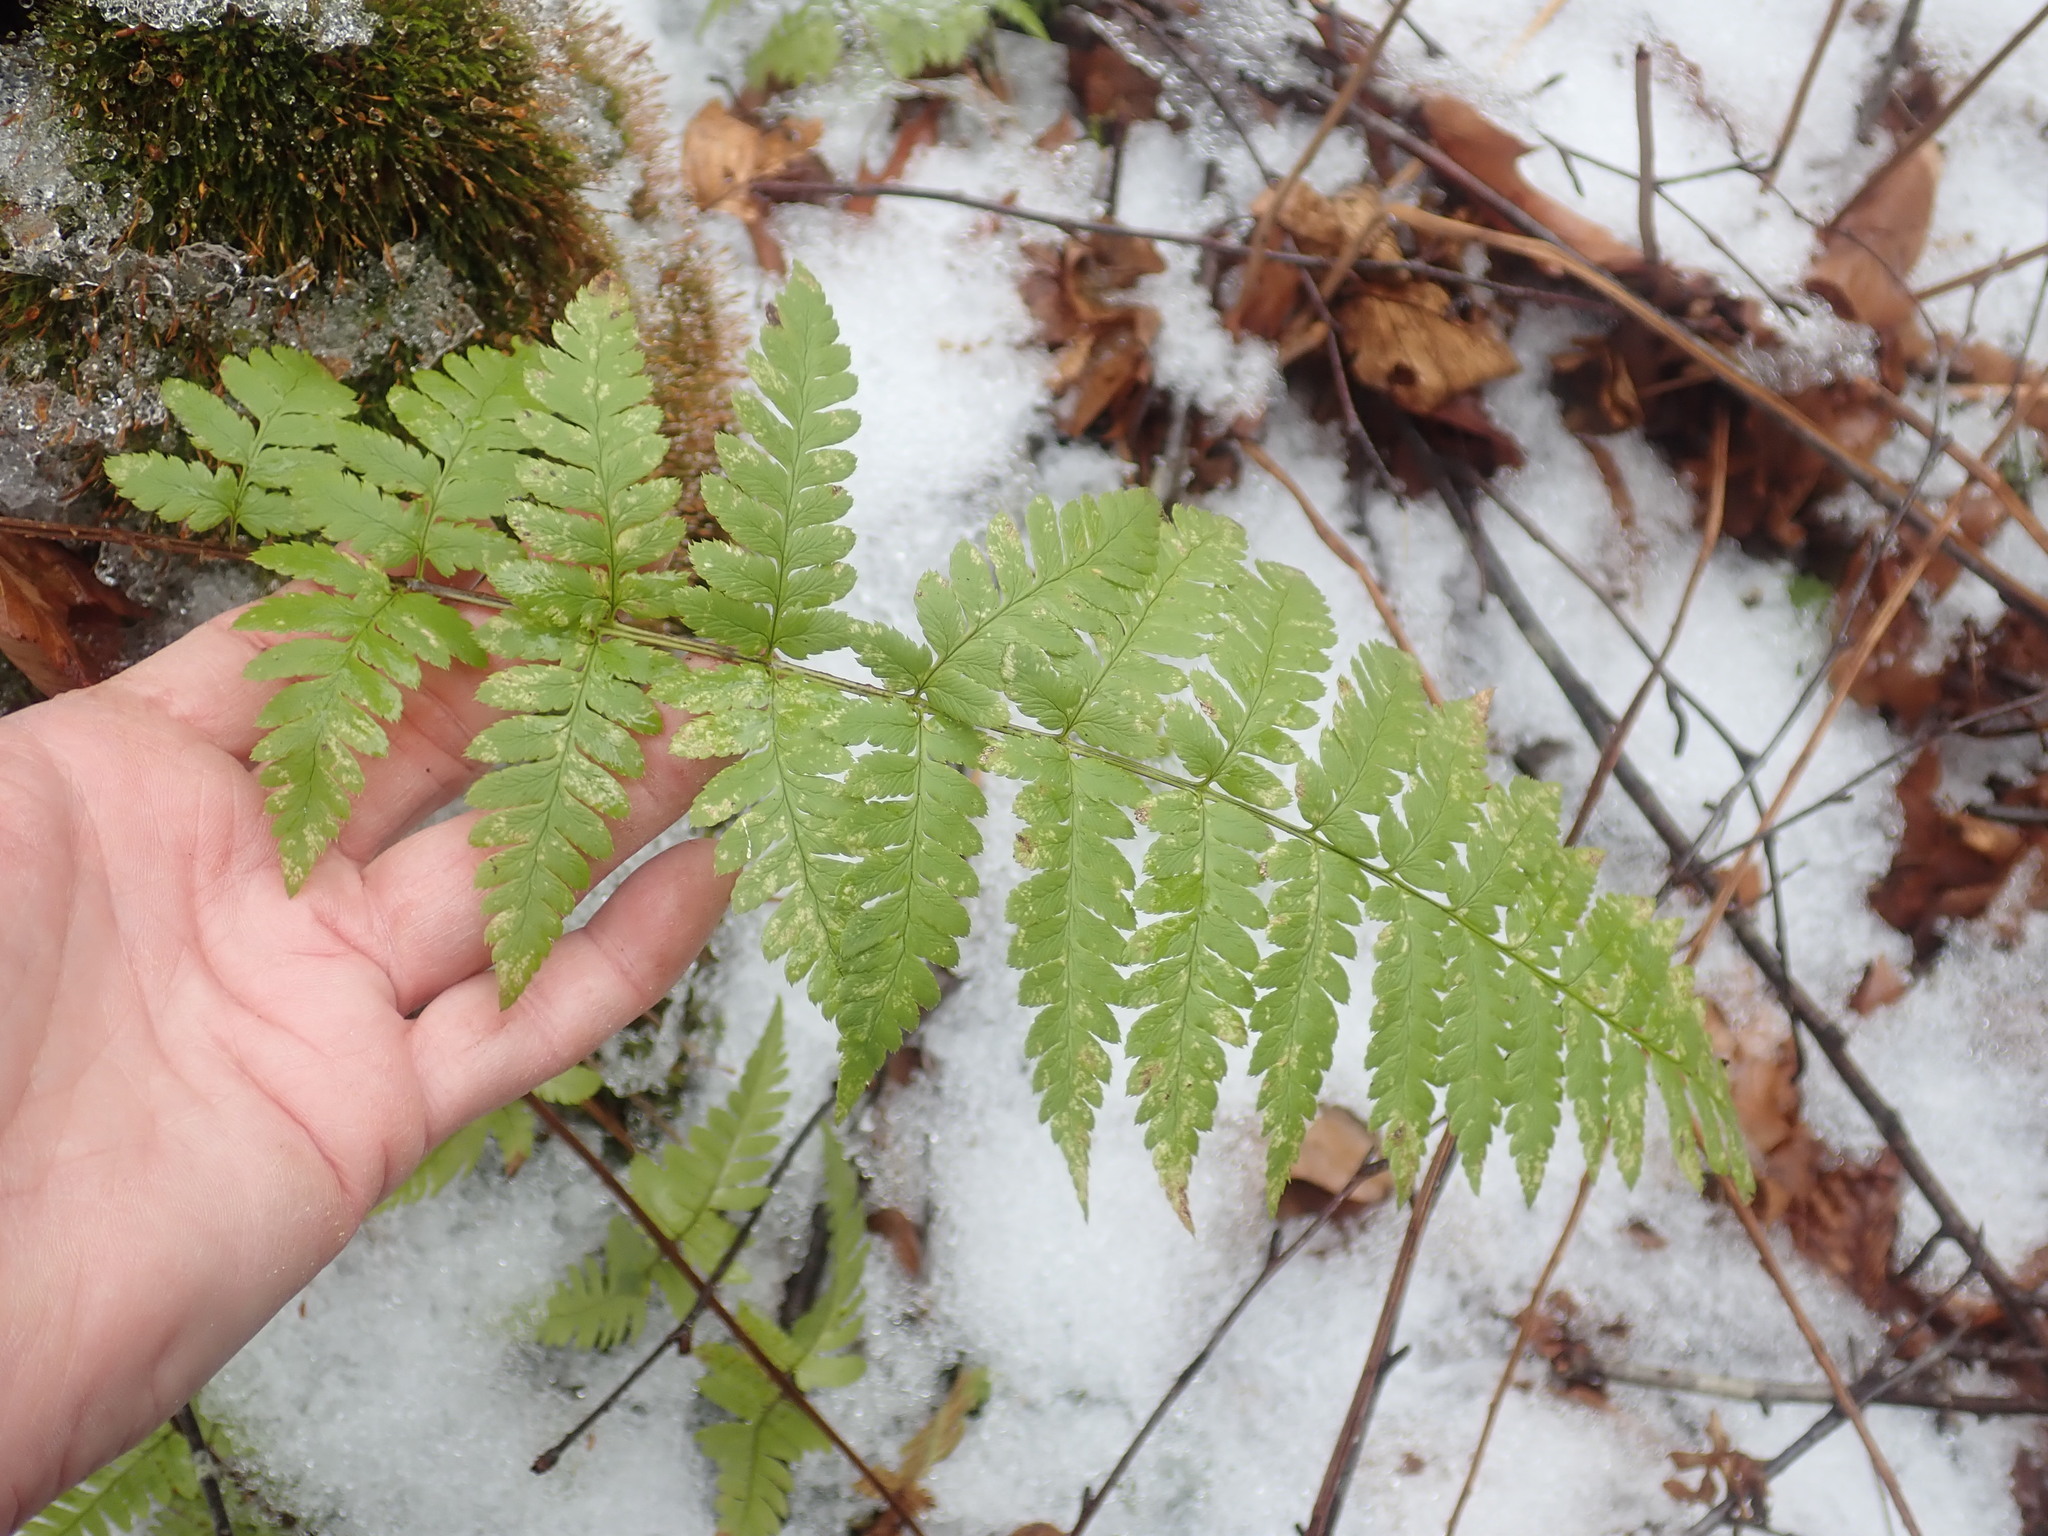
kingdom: Plantae
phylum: Tracheophyta
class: Polypodiopsida
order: Polypodiales
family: Dryopteridaceae
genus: Dryopteris
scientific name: Dryopteris boottii
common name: Boott's fern
